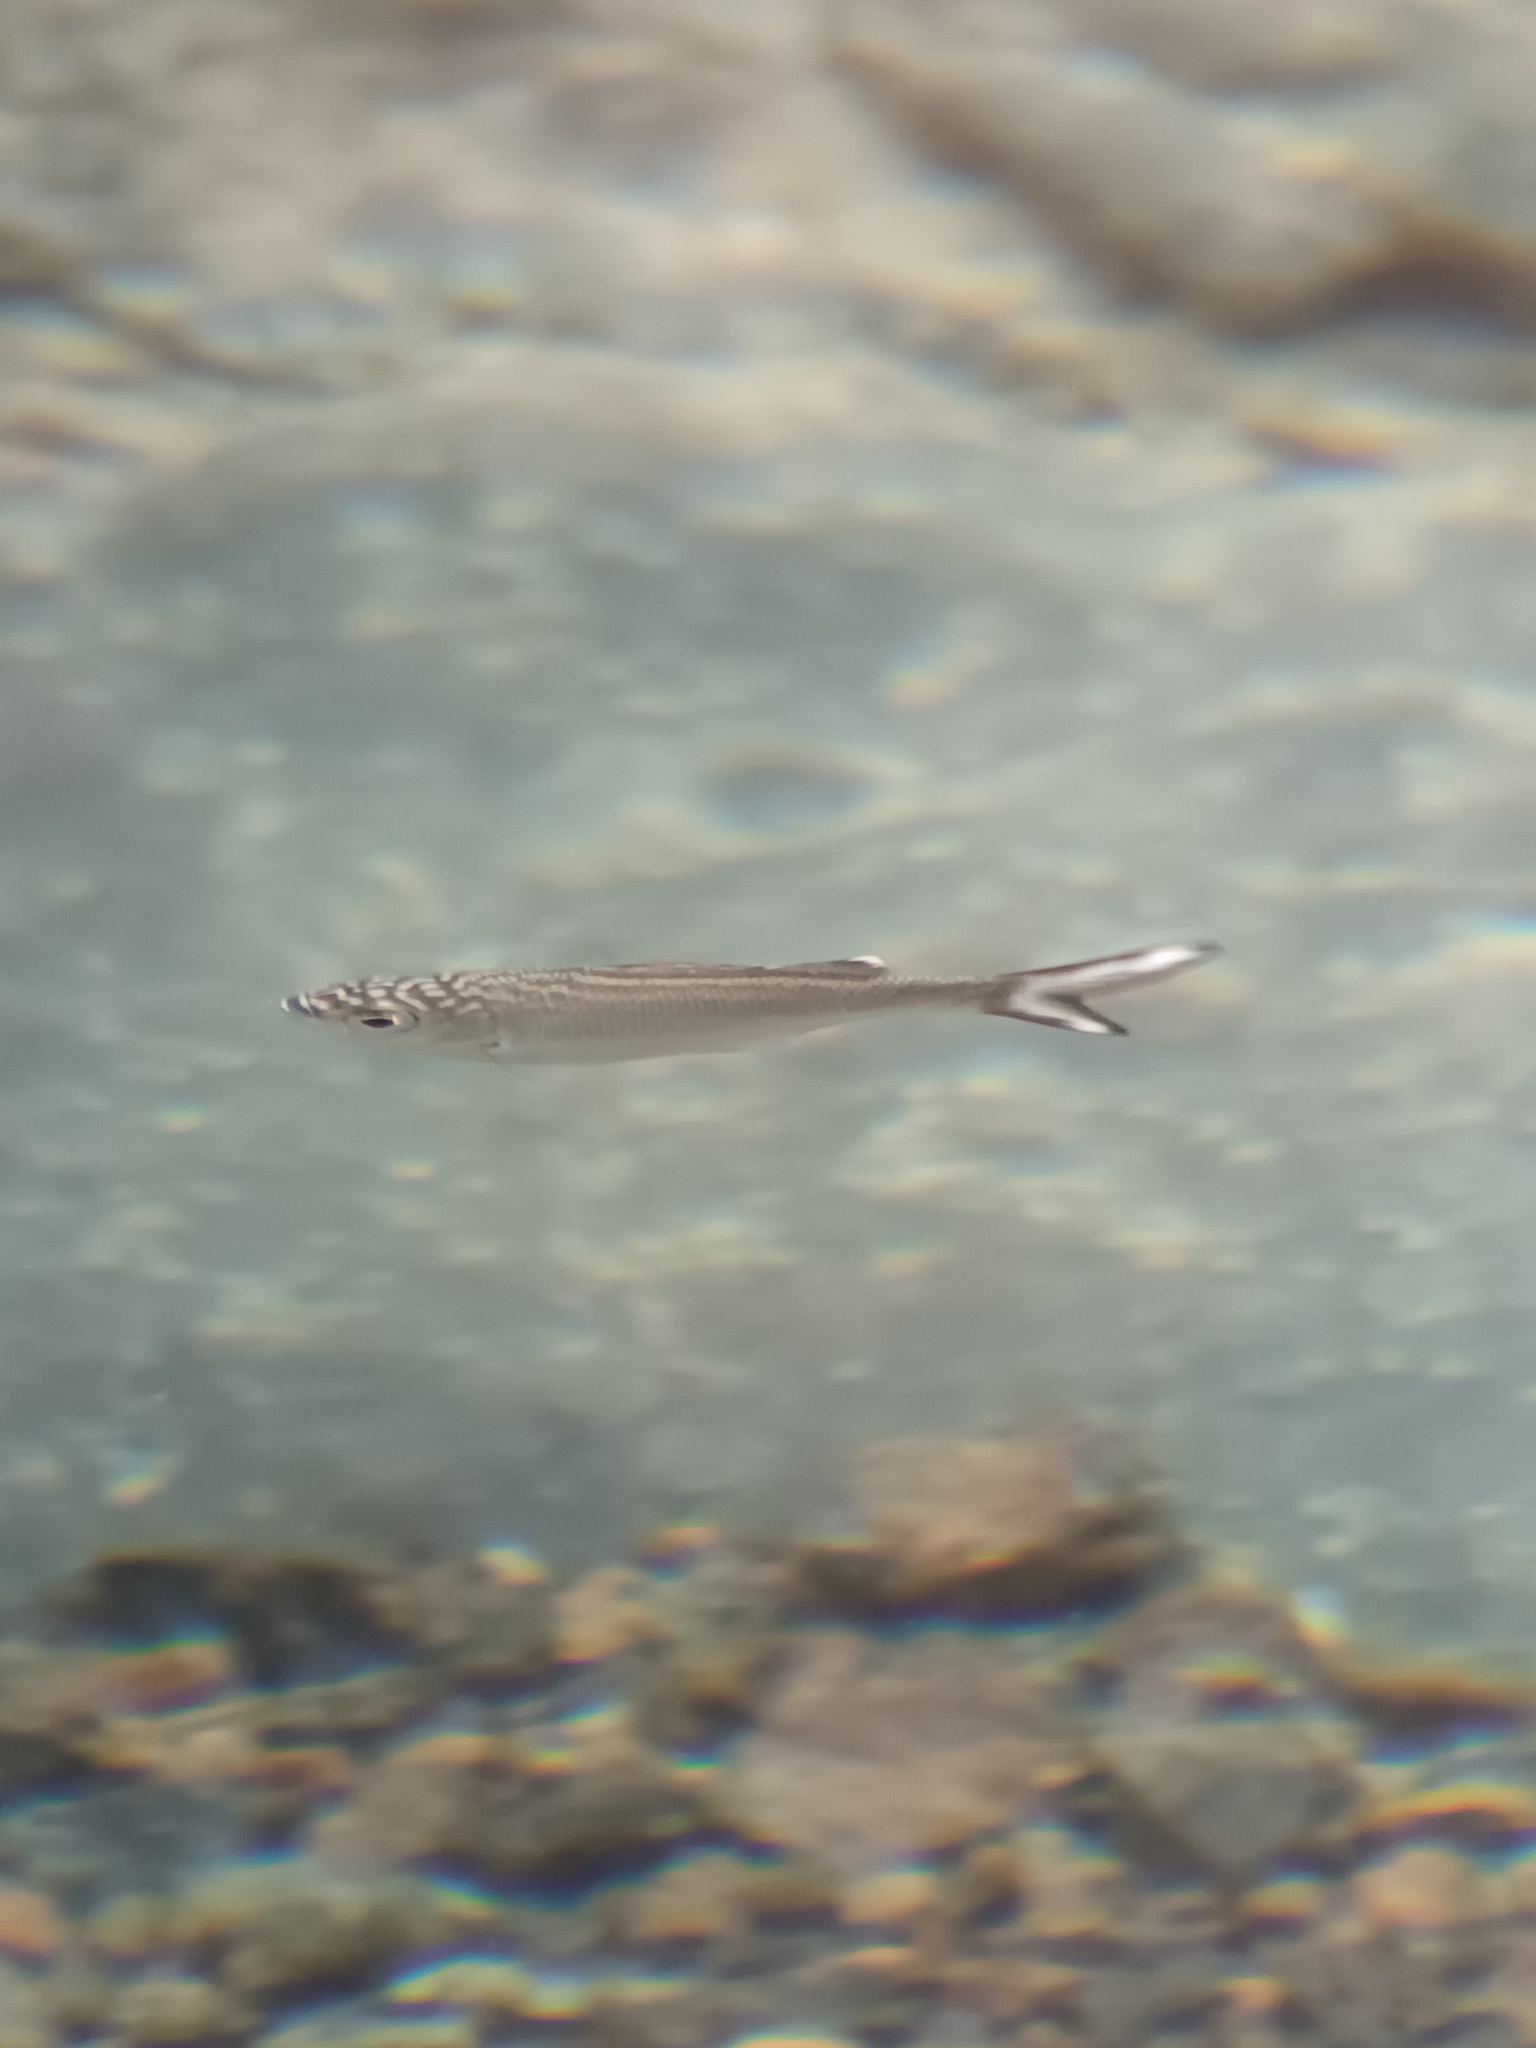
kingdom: Animalia
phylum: Chordata
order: Perciformes
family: Kuhliidae
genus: Kuhlia
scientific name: Kuhlia sandvicensis
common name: Hawaiian flagtail
